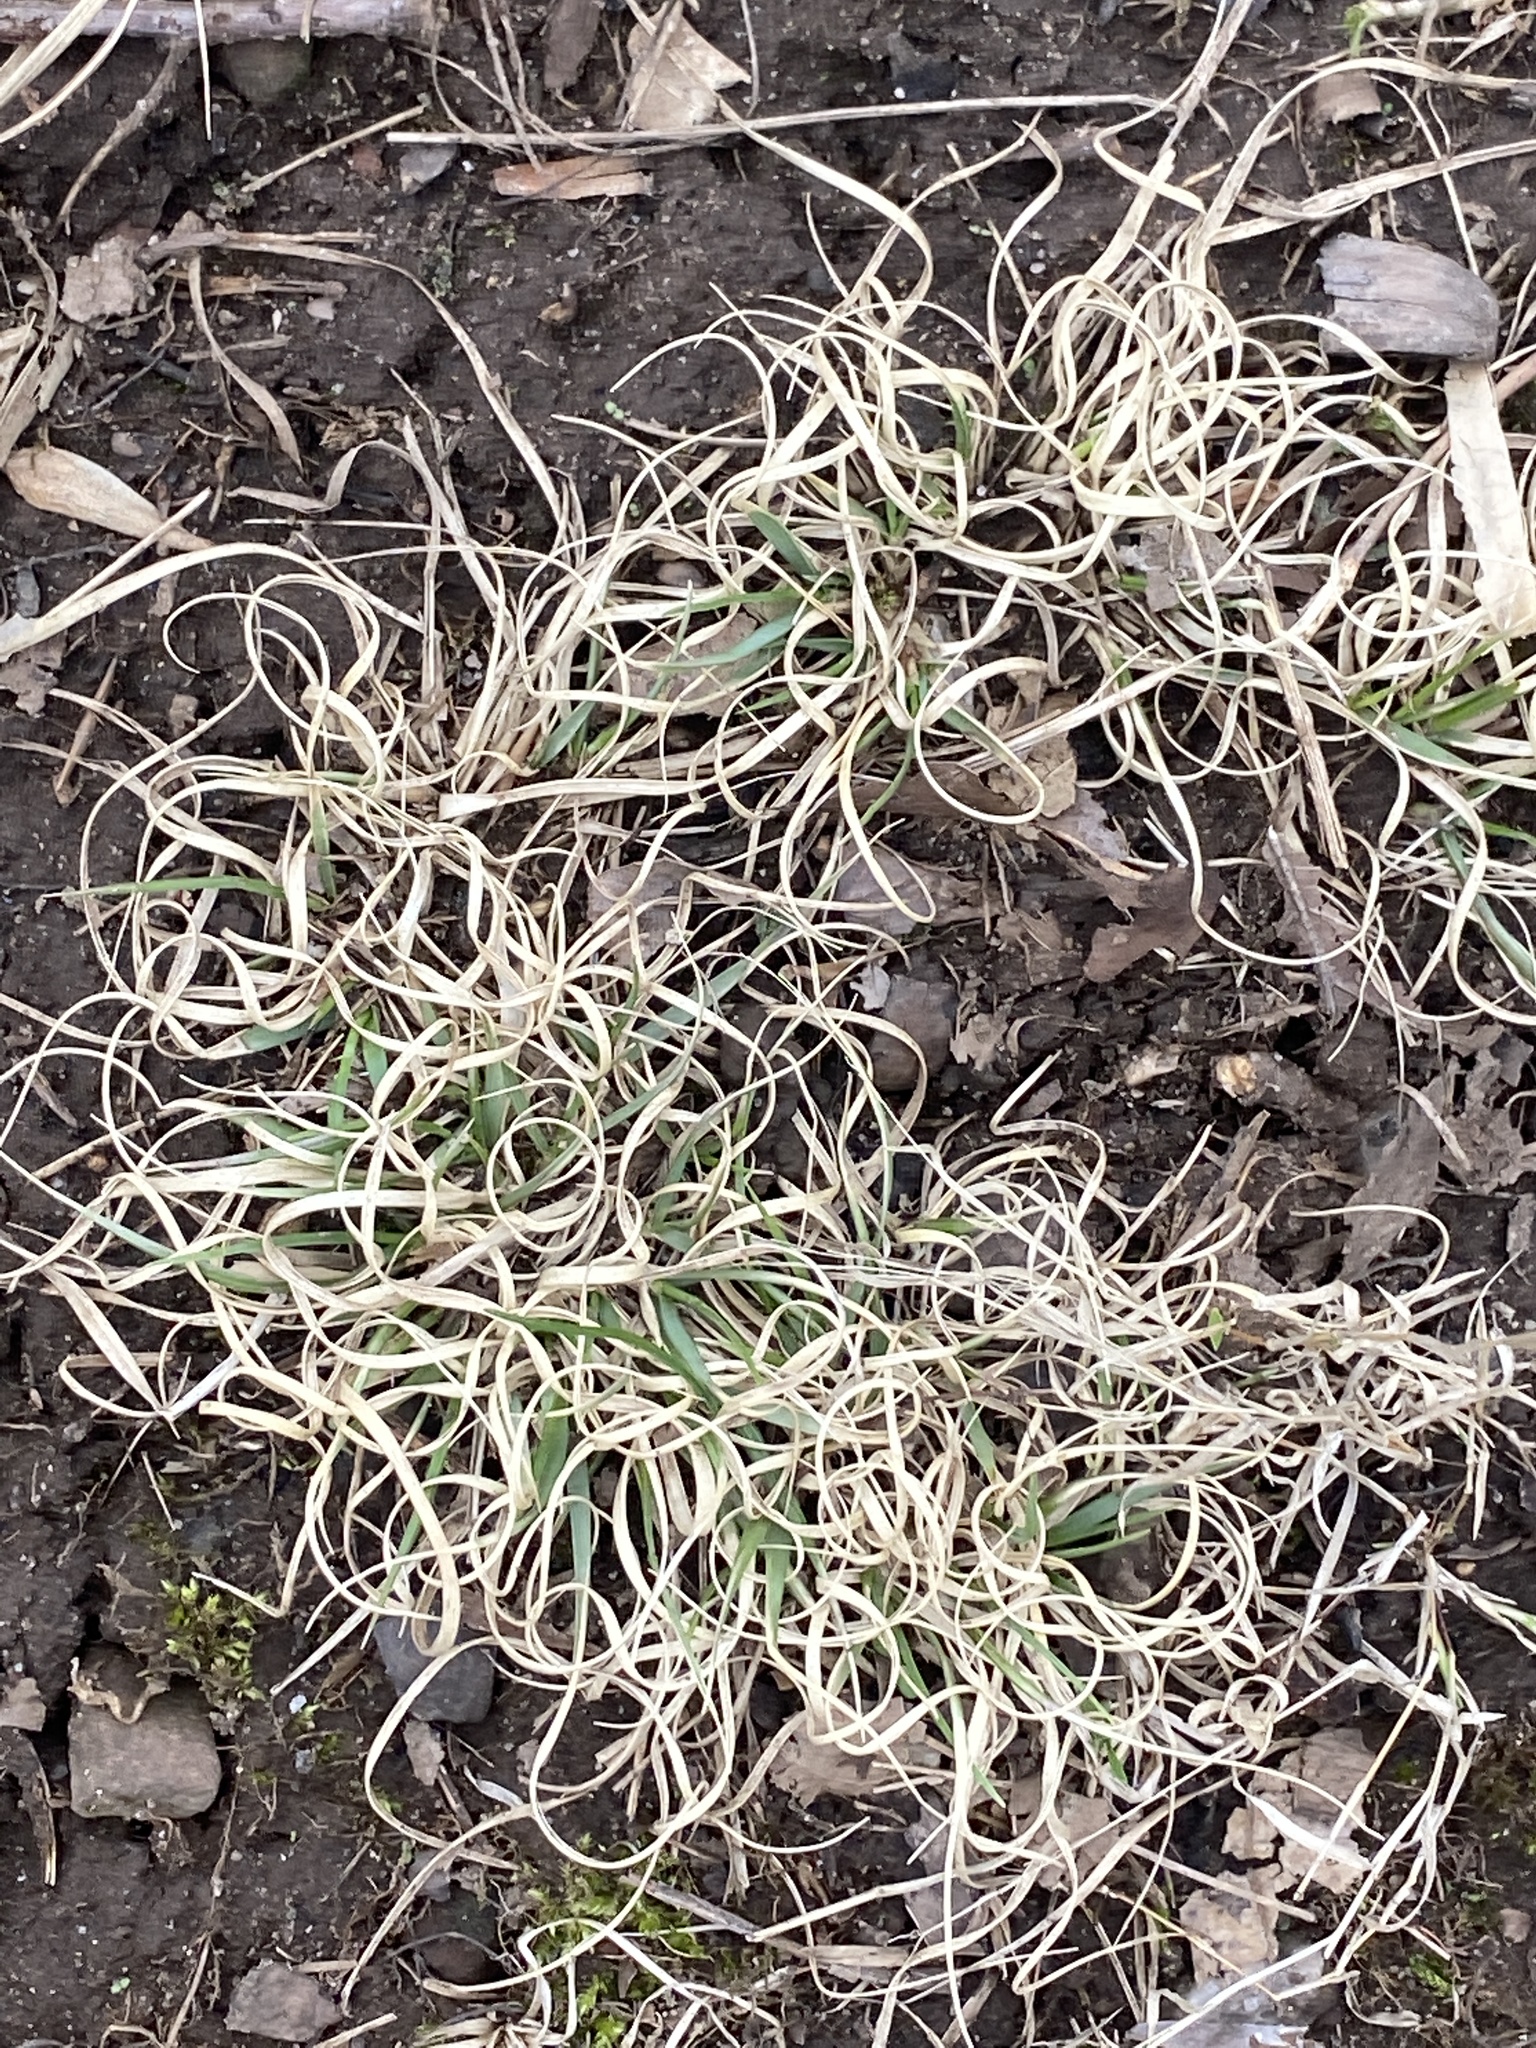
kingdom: Plantae
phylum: Tracheophyta
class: Liliopsida
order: Poales
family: Poaceae
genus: Danthonia
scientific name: Danthonia spicata
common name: Common wild oatgrass
